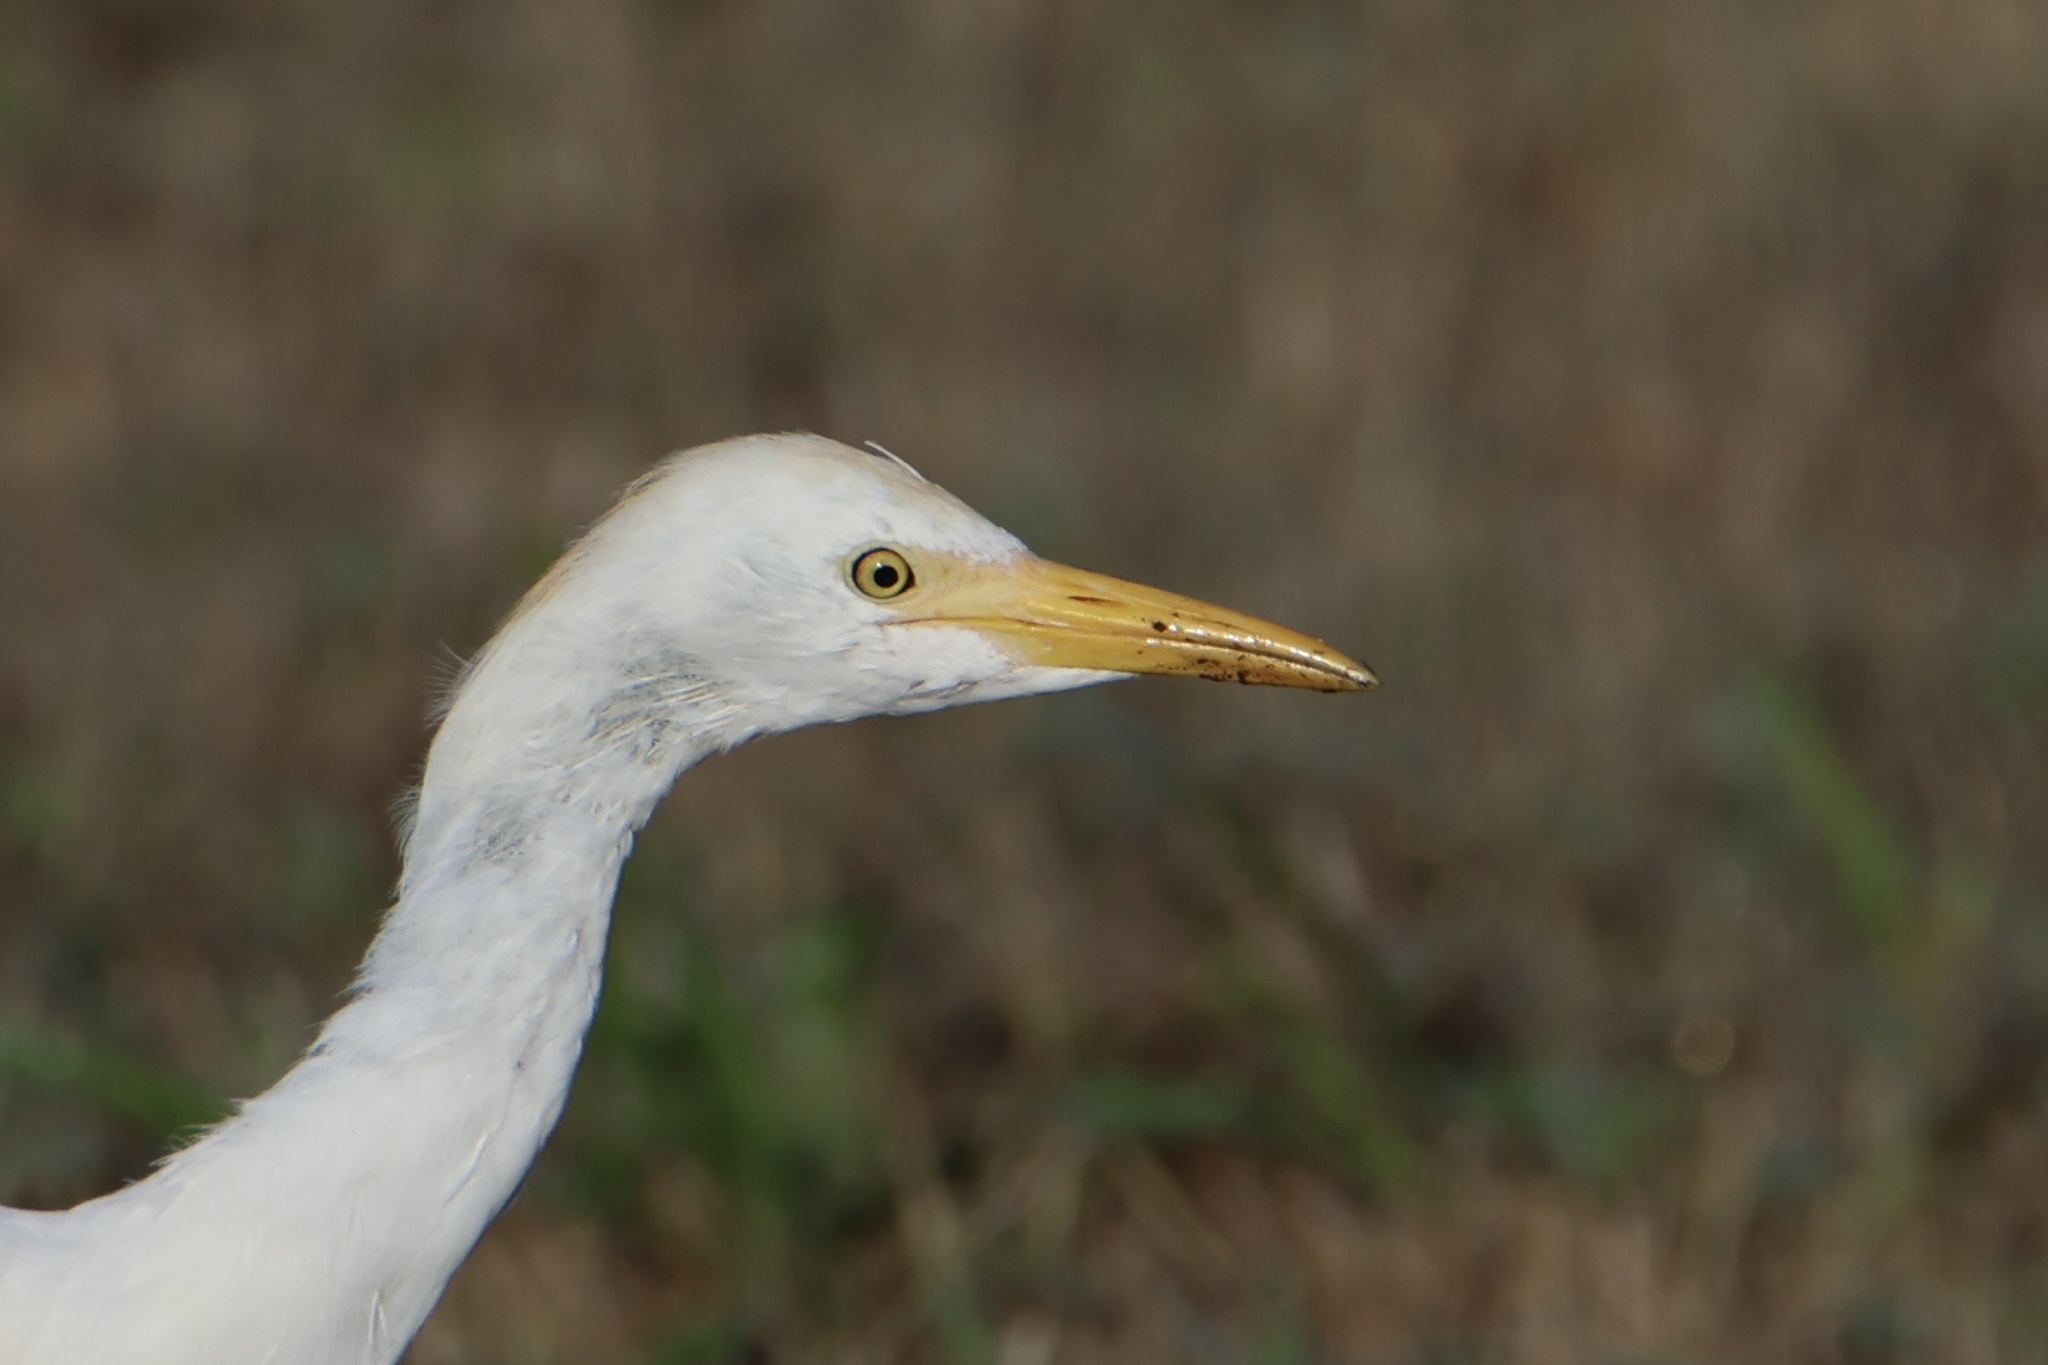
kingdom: Animalia
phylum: Chordata
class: Aves
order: Pelecaniformes
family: Ardeidae
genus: Bubulcus
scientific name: Bubulcus ibis
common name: Cattle egret
